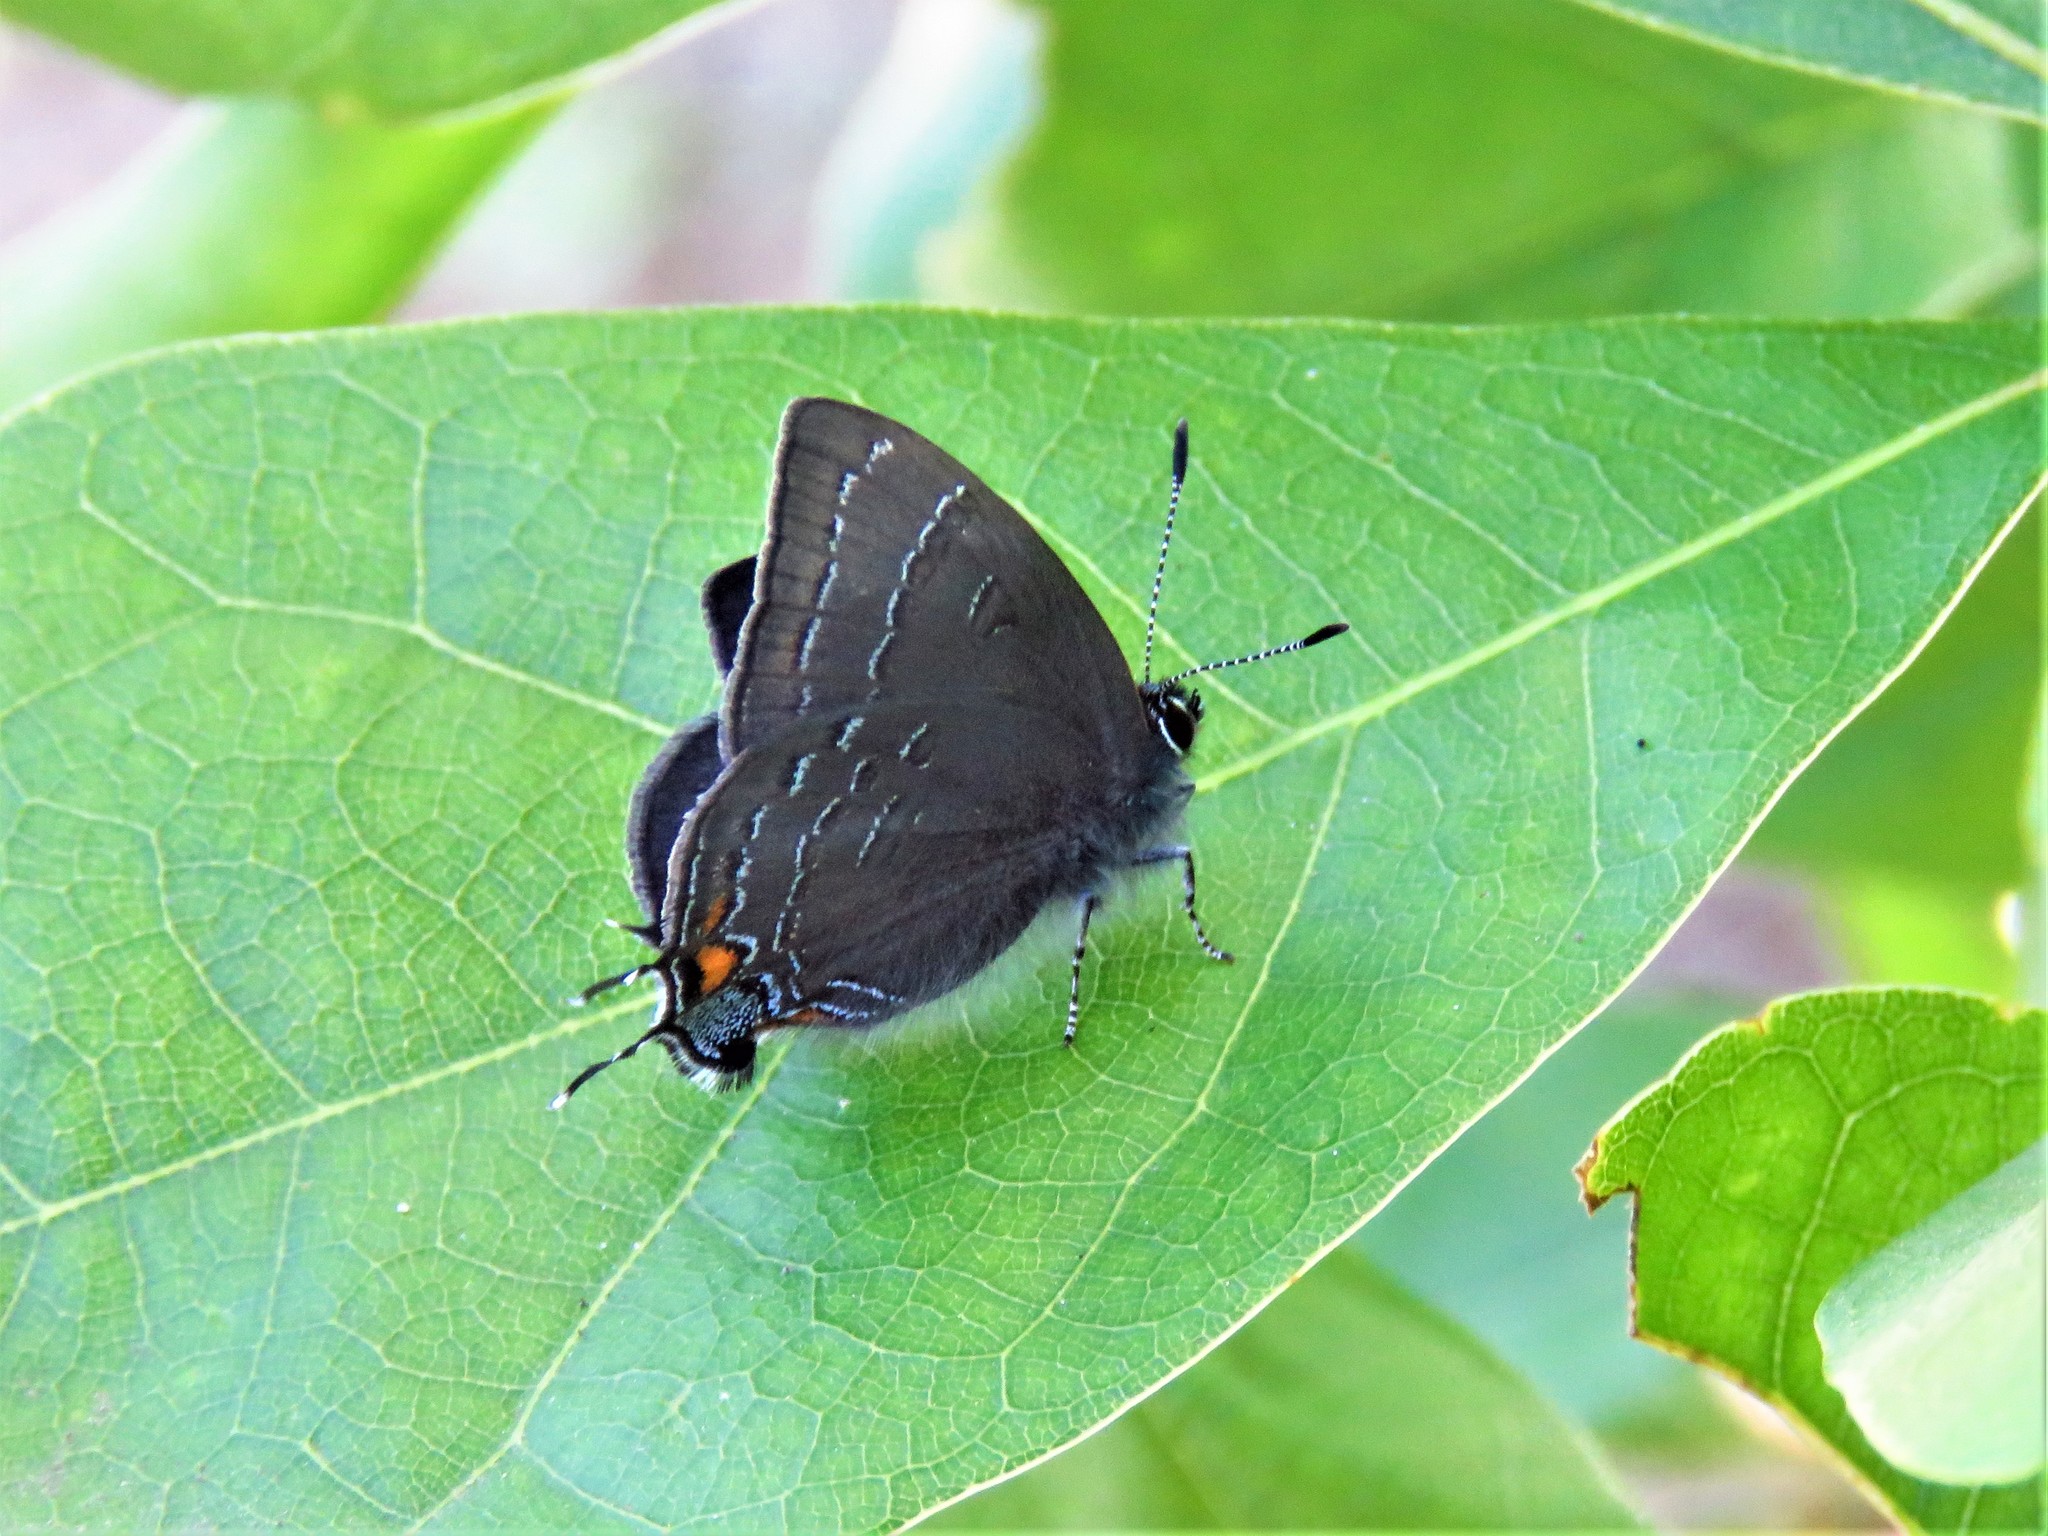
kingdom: Animalia
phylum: Arthropoda
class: Insecta
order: Lepidoptera
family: Lycaenidae
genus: Satyrium
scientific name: Satyrium calanus
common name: Banded hairstreak
